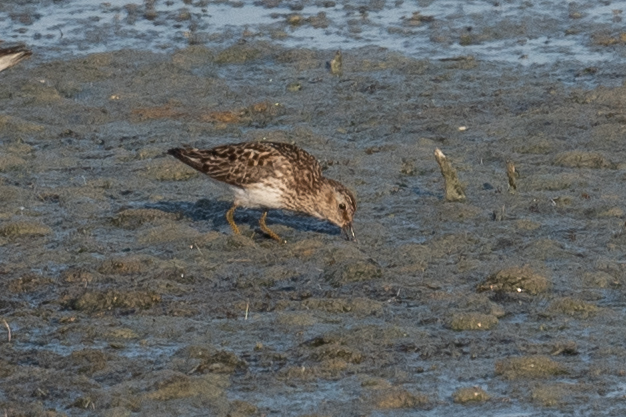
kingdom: Animalia
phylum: Chordata
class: Aves
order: Charadriiformes
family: Scolopacidae
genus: Calidris
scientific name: Calidris minutilla
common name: Least sandpiper
